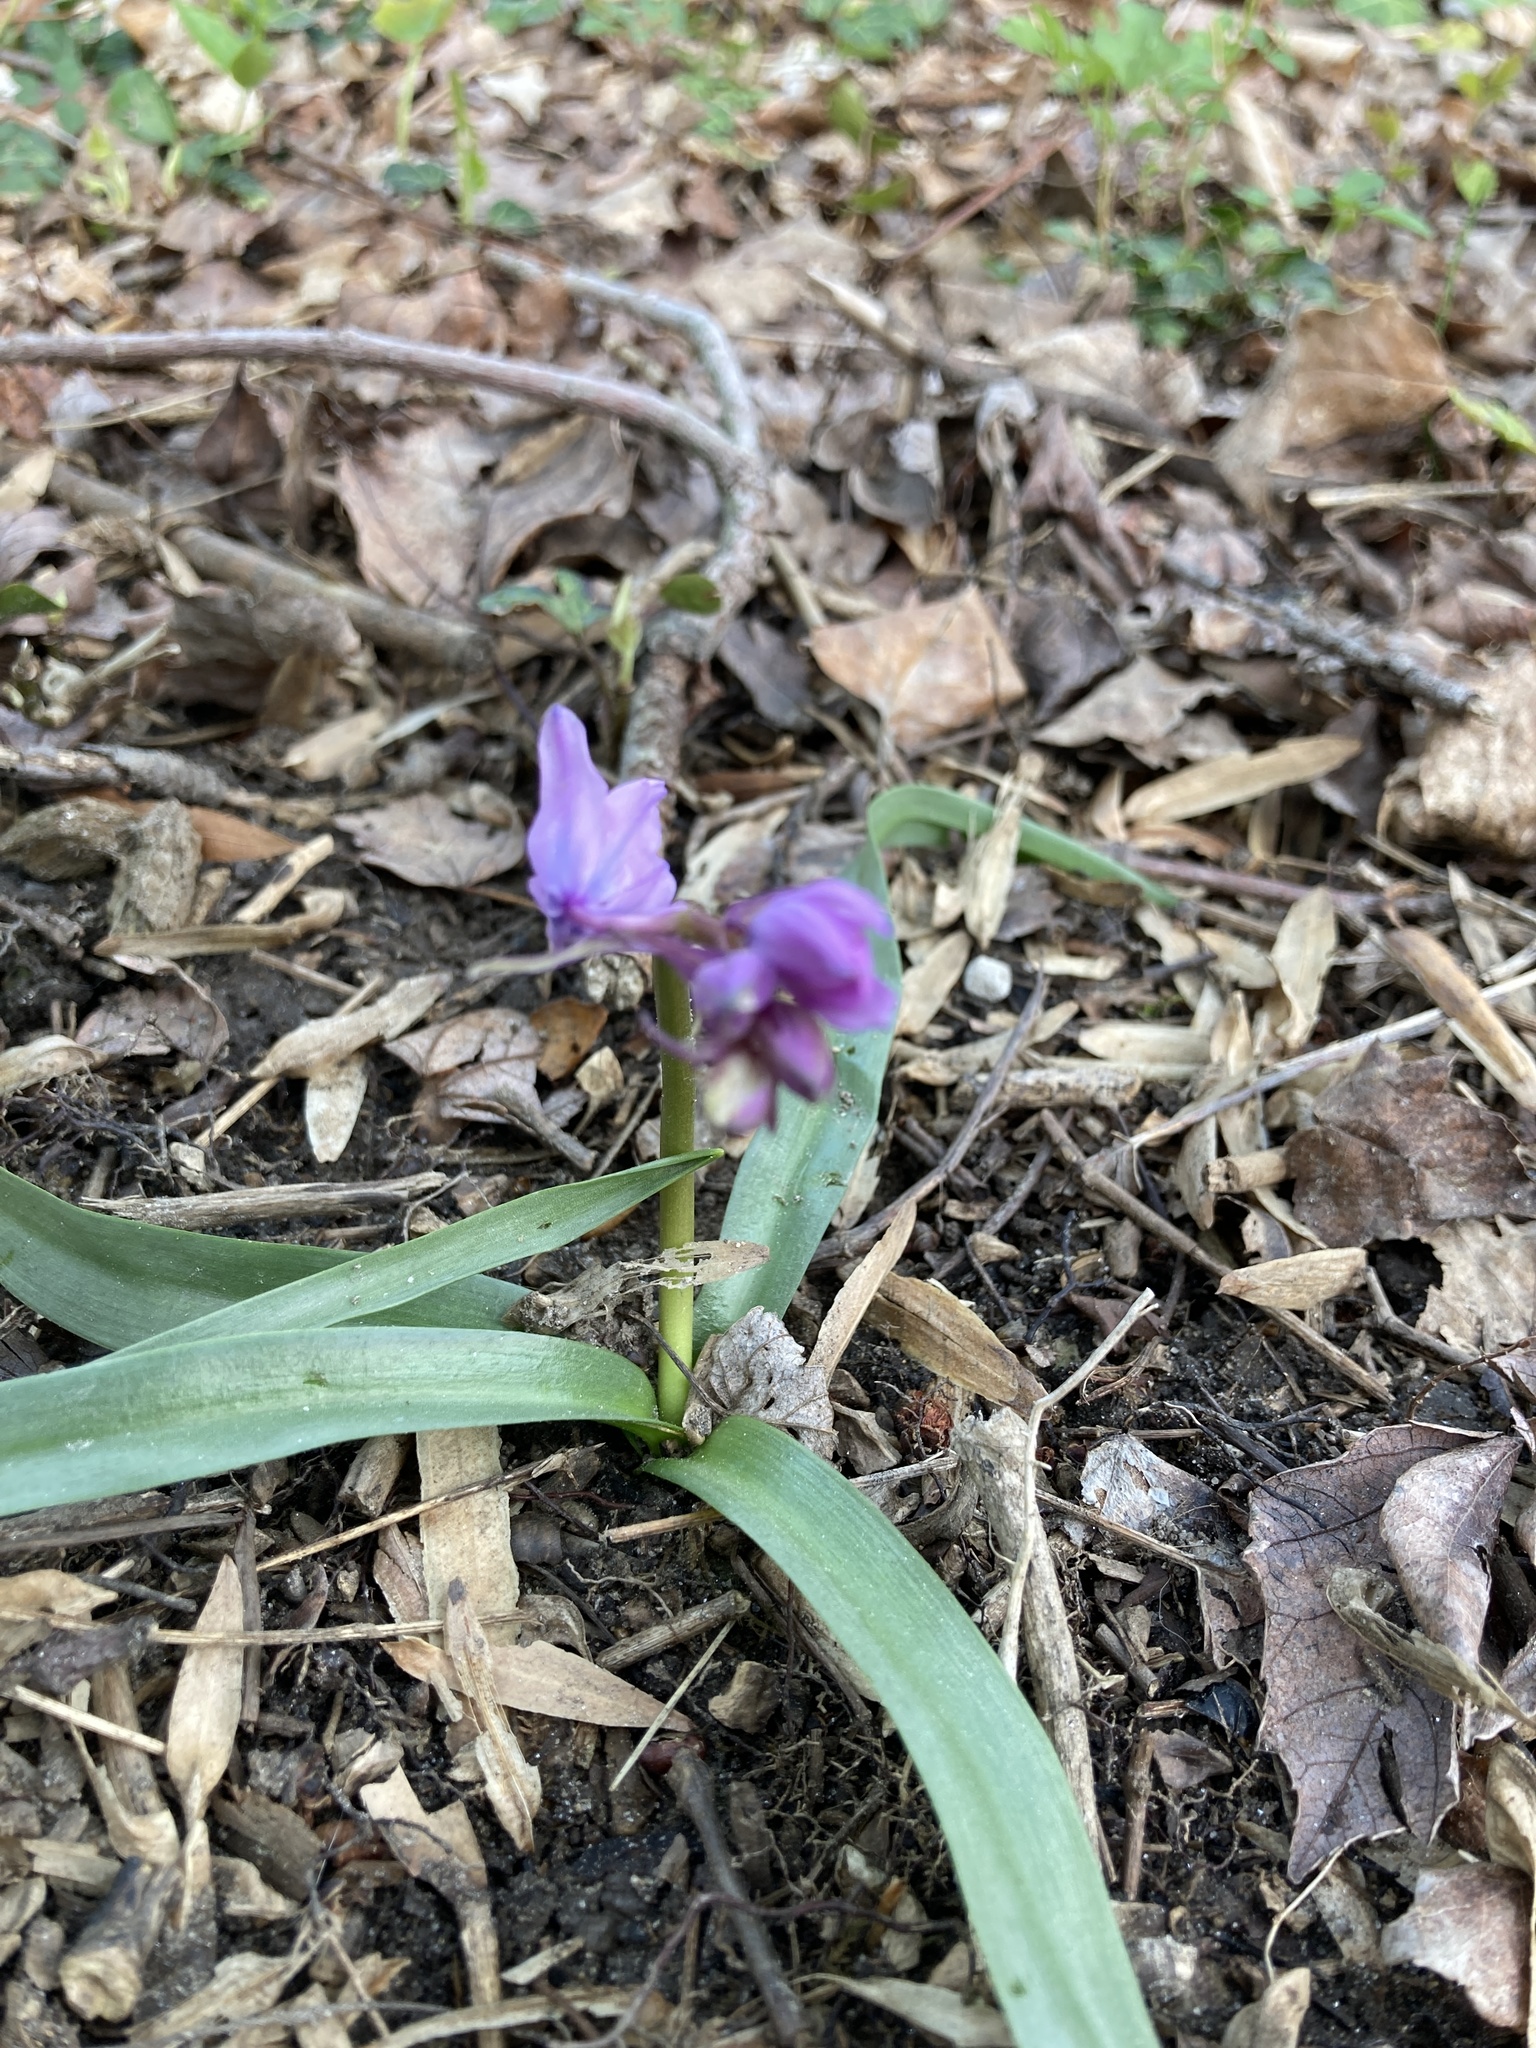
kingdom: Plantae
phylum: Tracheophyta
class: Liliopsida
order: Asparagales
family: Orchidaceae
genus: Galearis
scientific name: Galearis spectabilis
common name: Purple-hooded orchis
